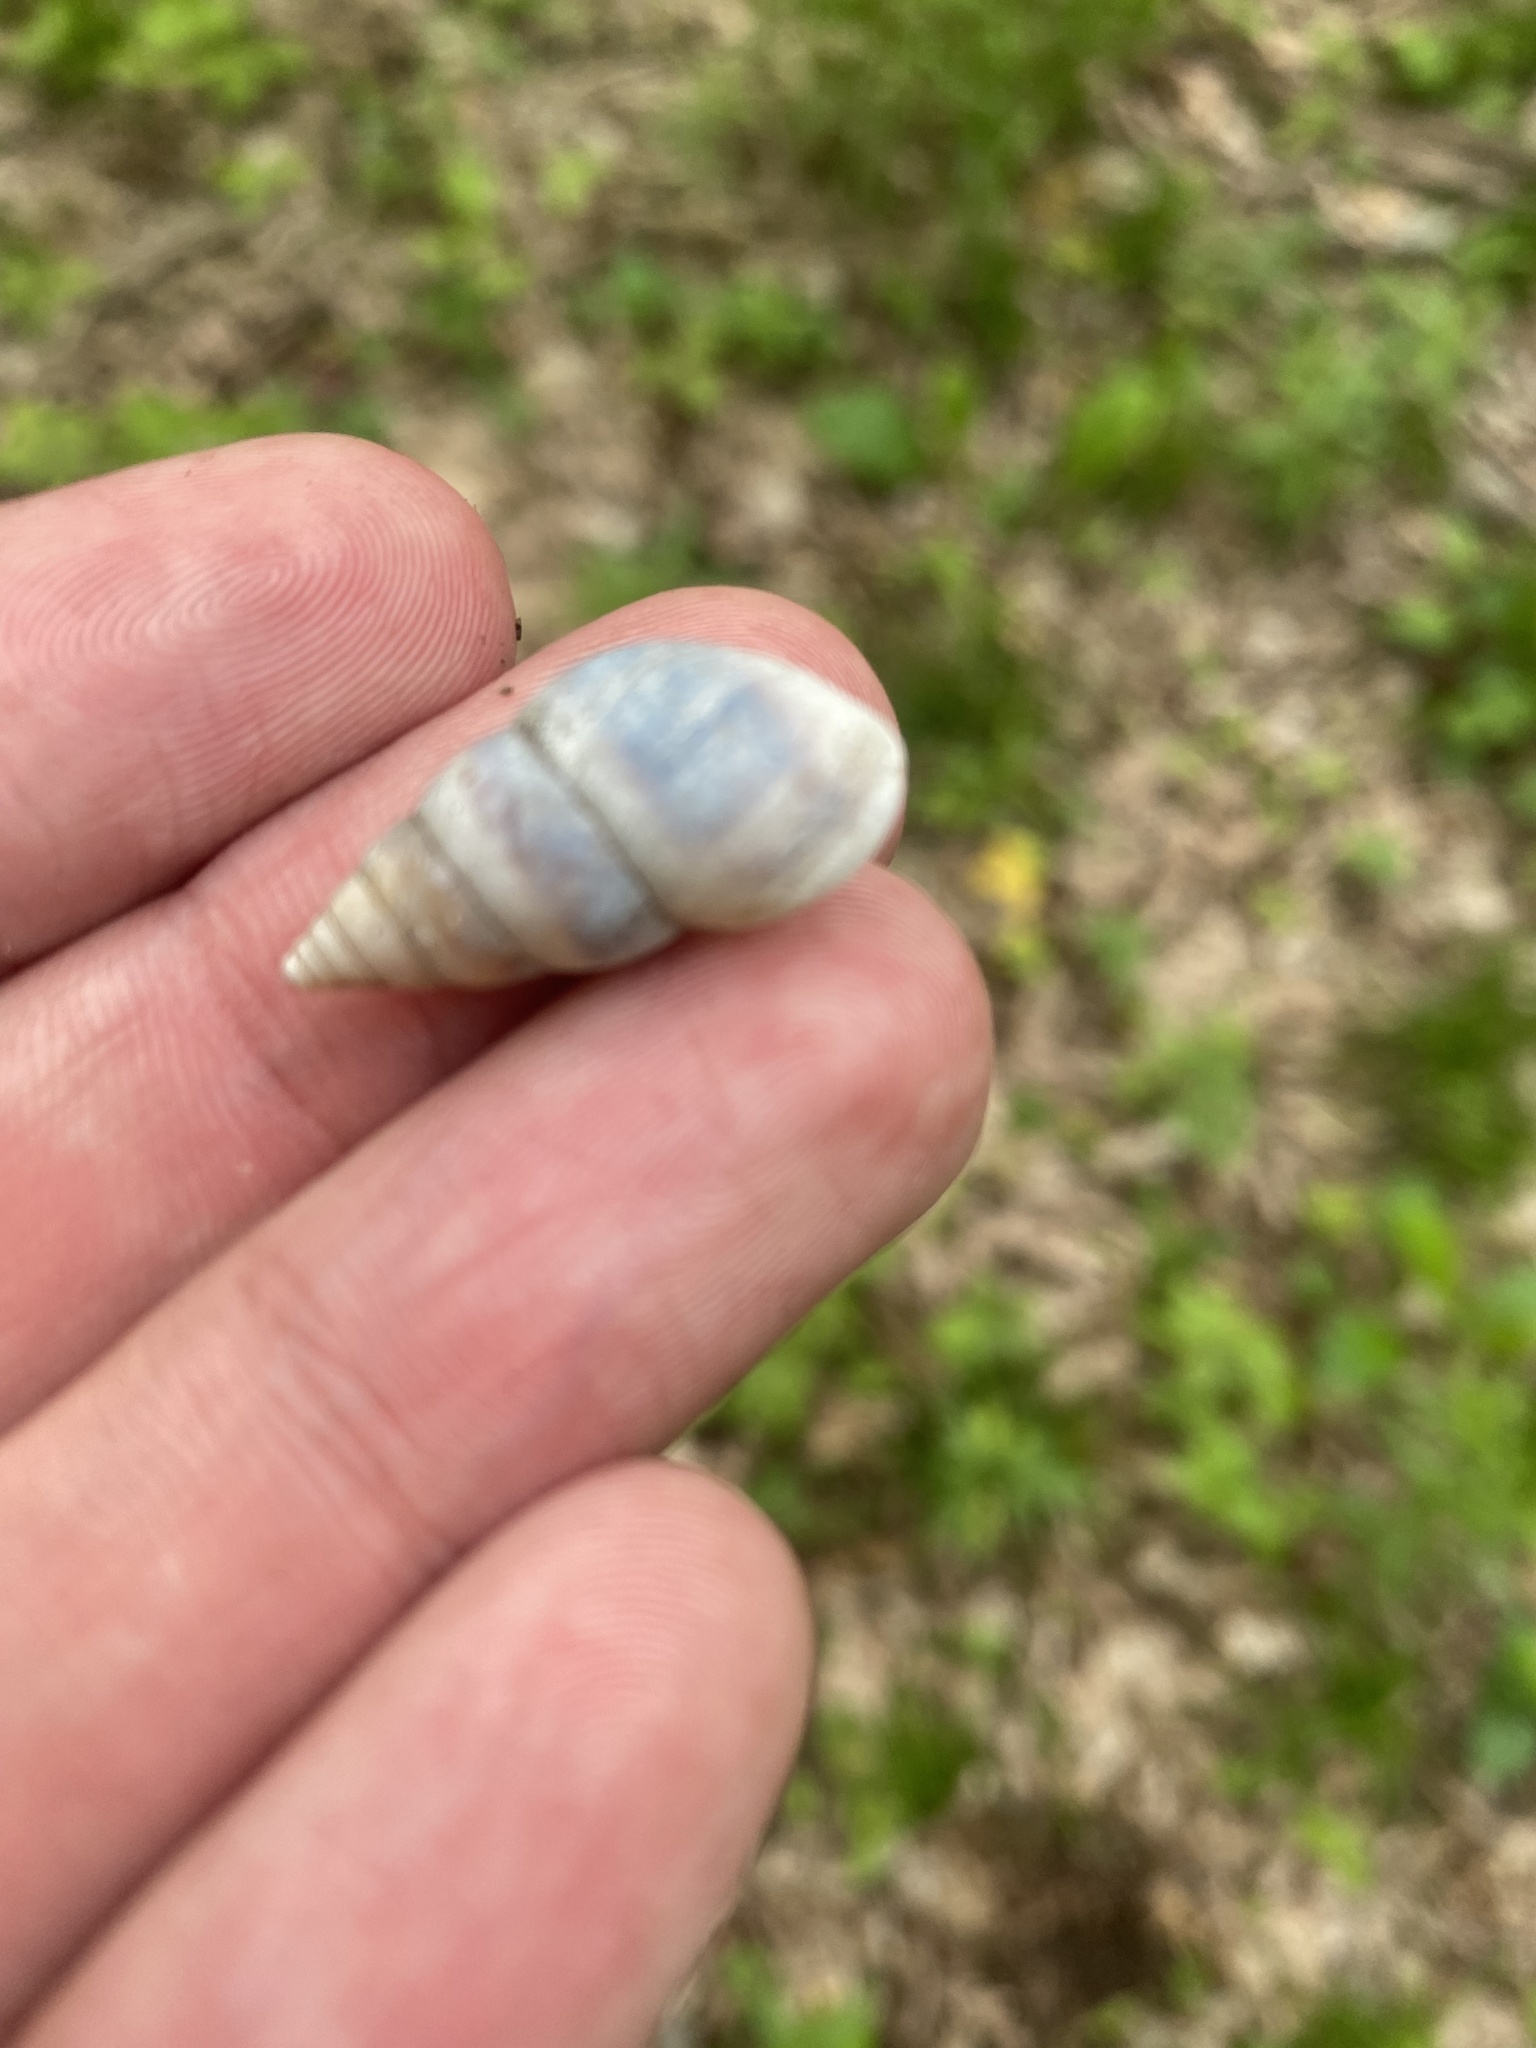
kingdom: Animalia
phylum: Mollusca
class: Gastropoda
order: Stylommatophora
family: Enidae
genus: Caucasicola
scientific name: Caucasicola raddei
